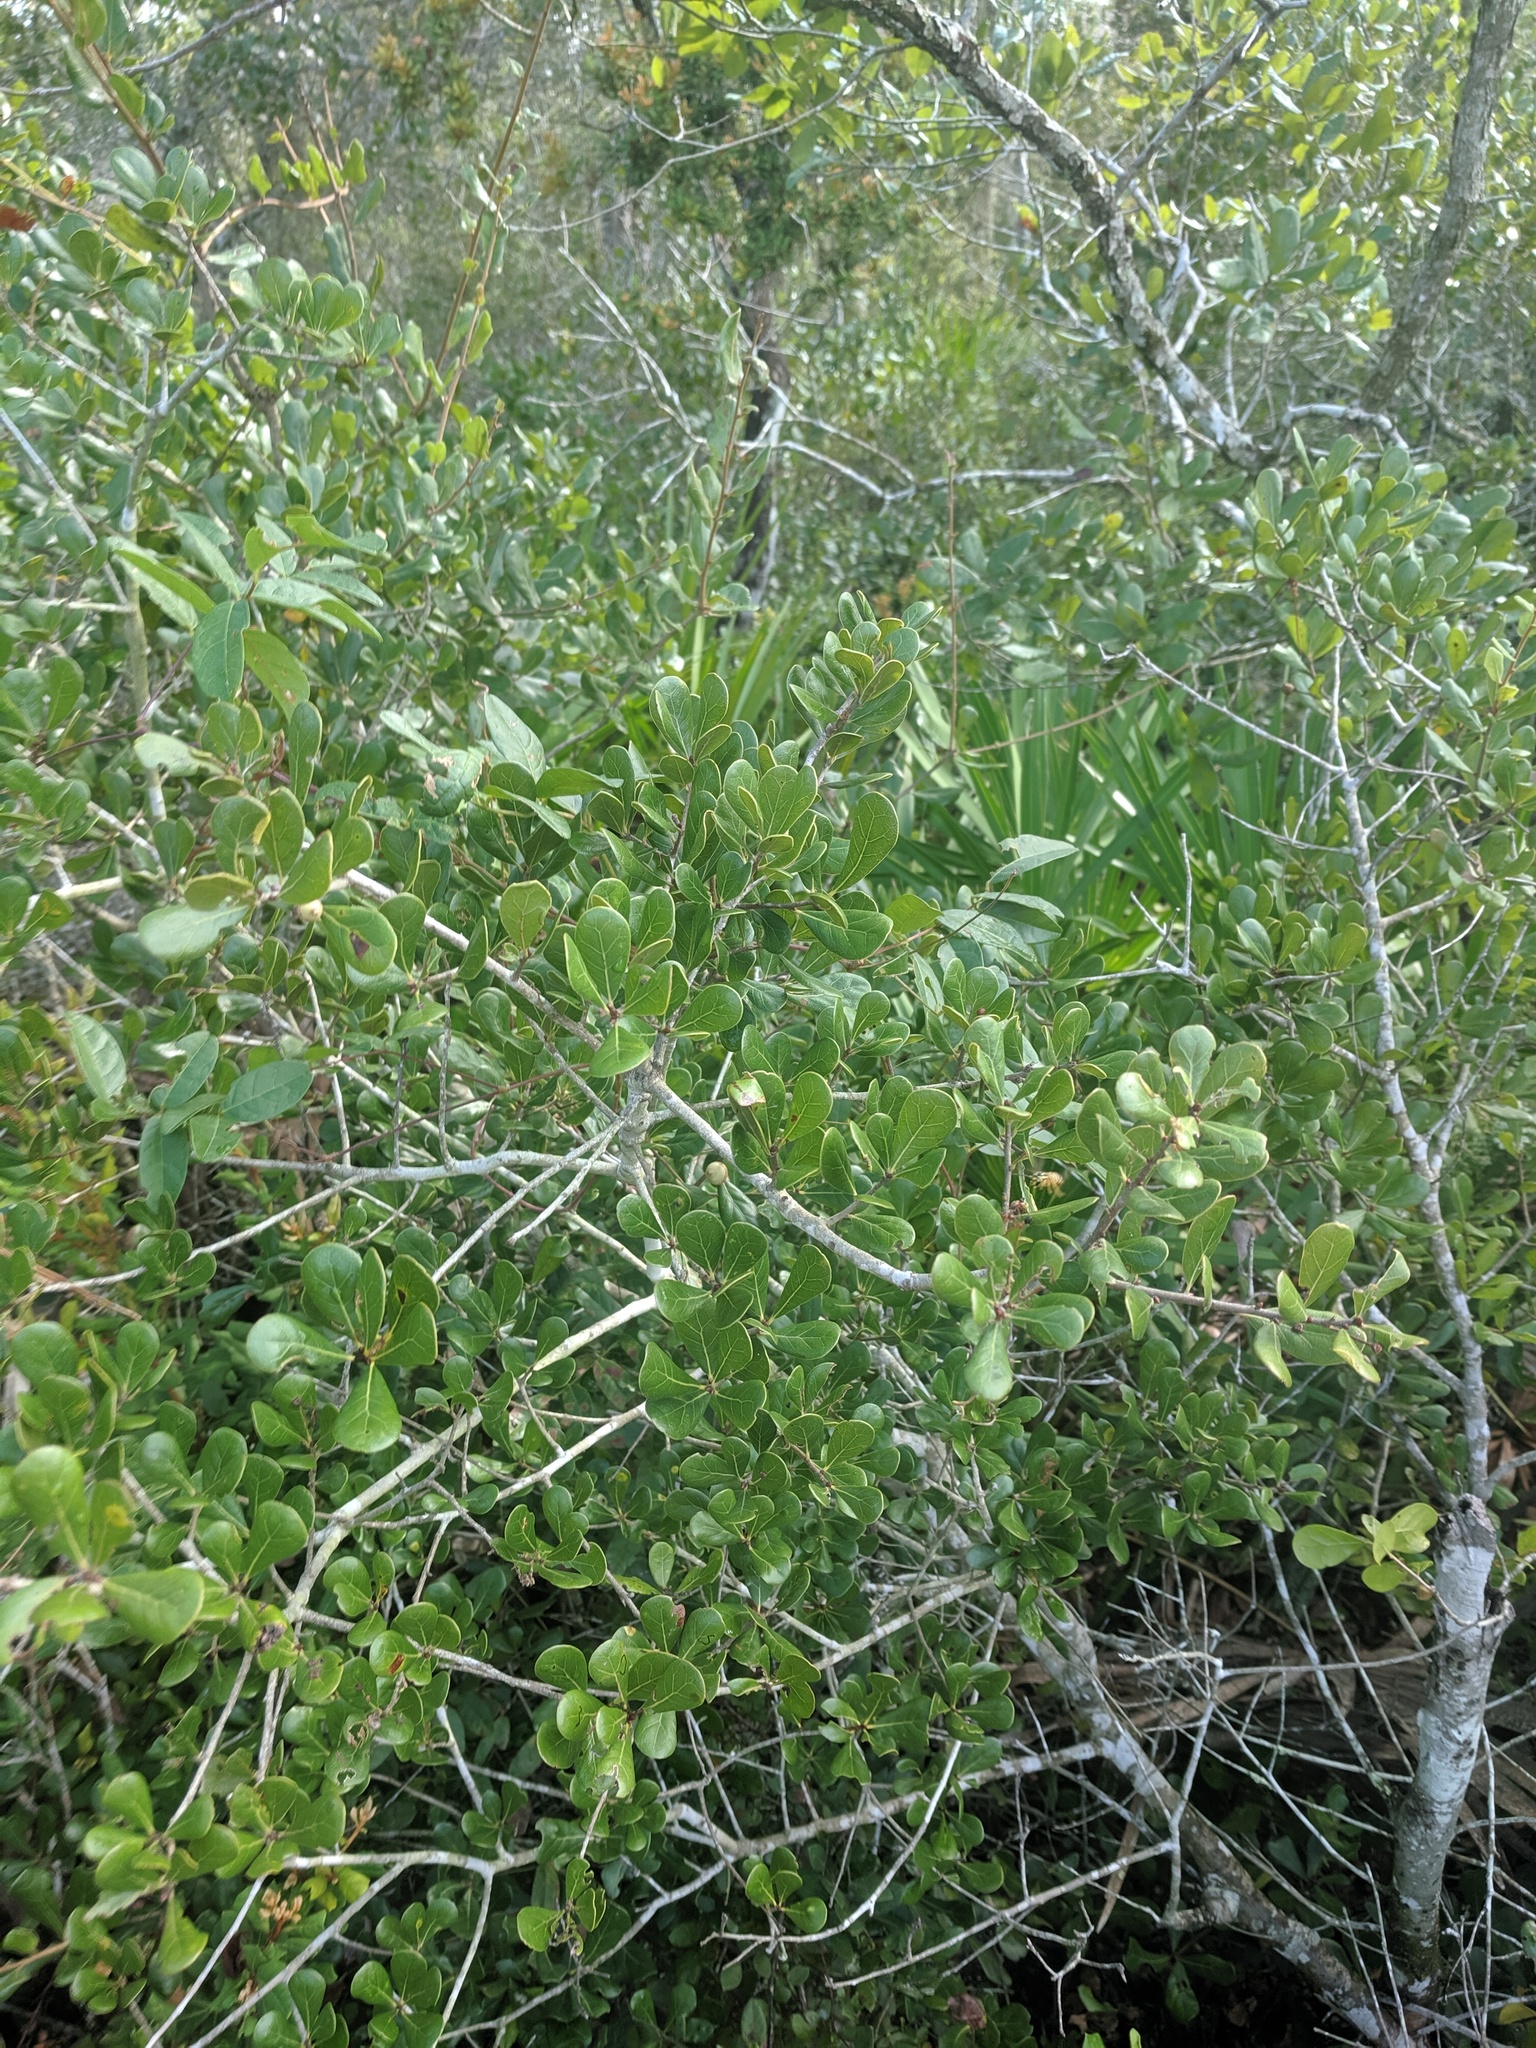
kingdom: Plantae
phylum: Tracheophyta
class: Magnoliopsida
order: Fagales
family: Fagaceae
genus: Quercus
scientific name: Quercus myrtifolia
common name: Myrtle oak
